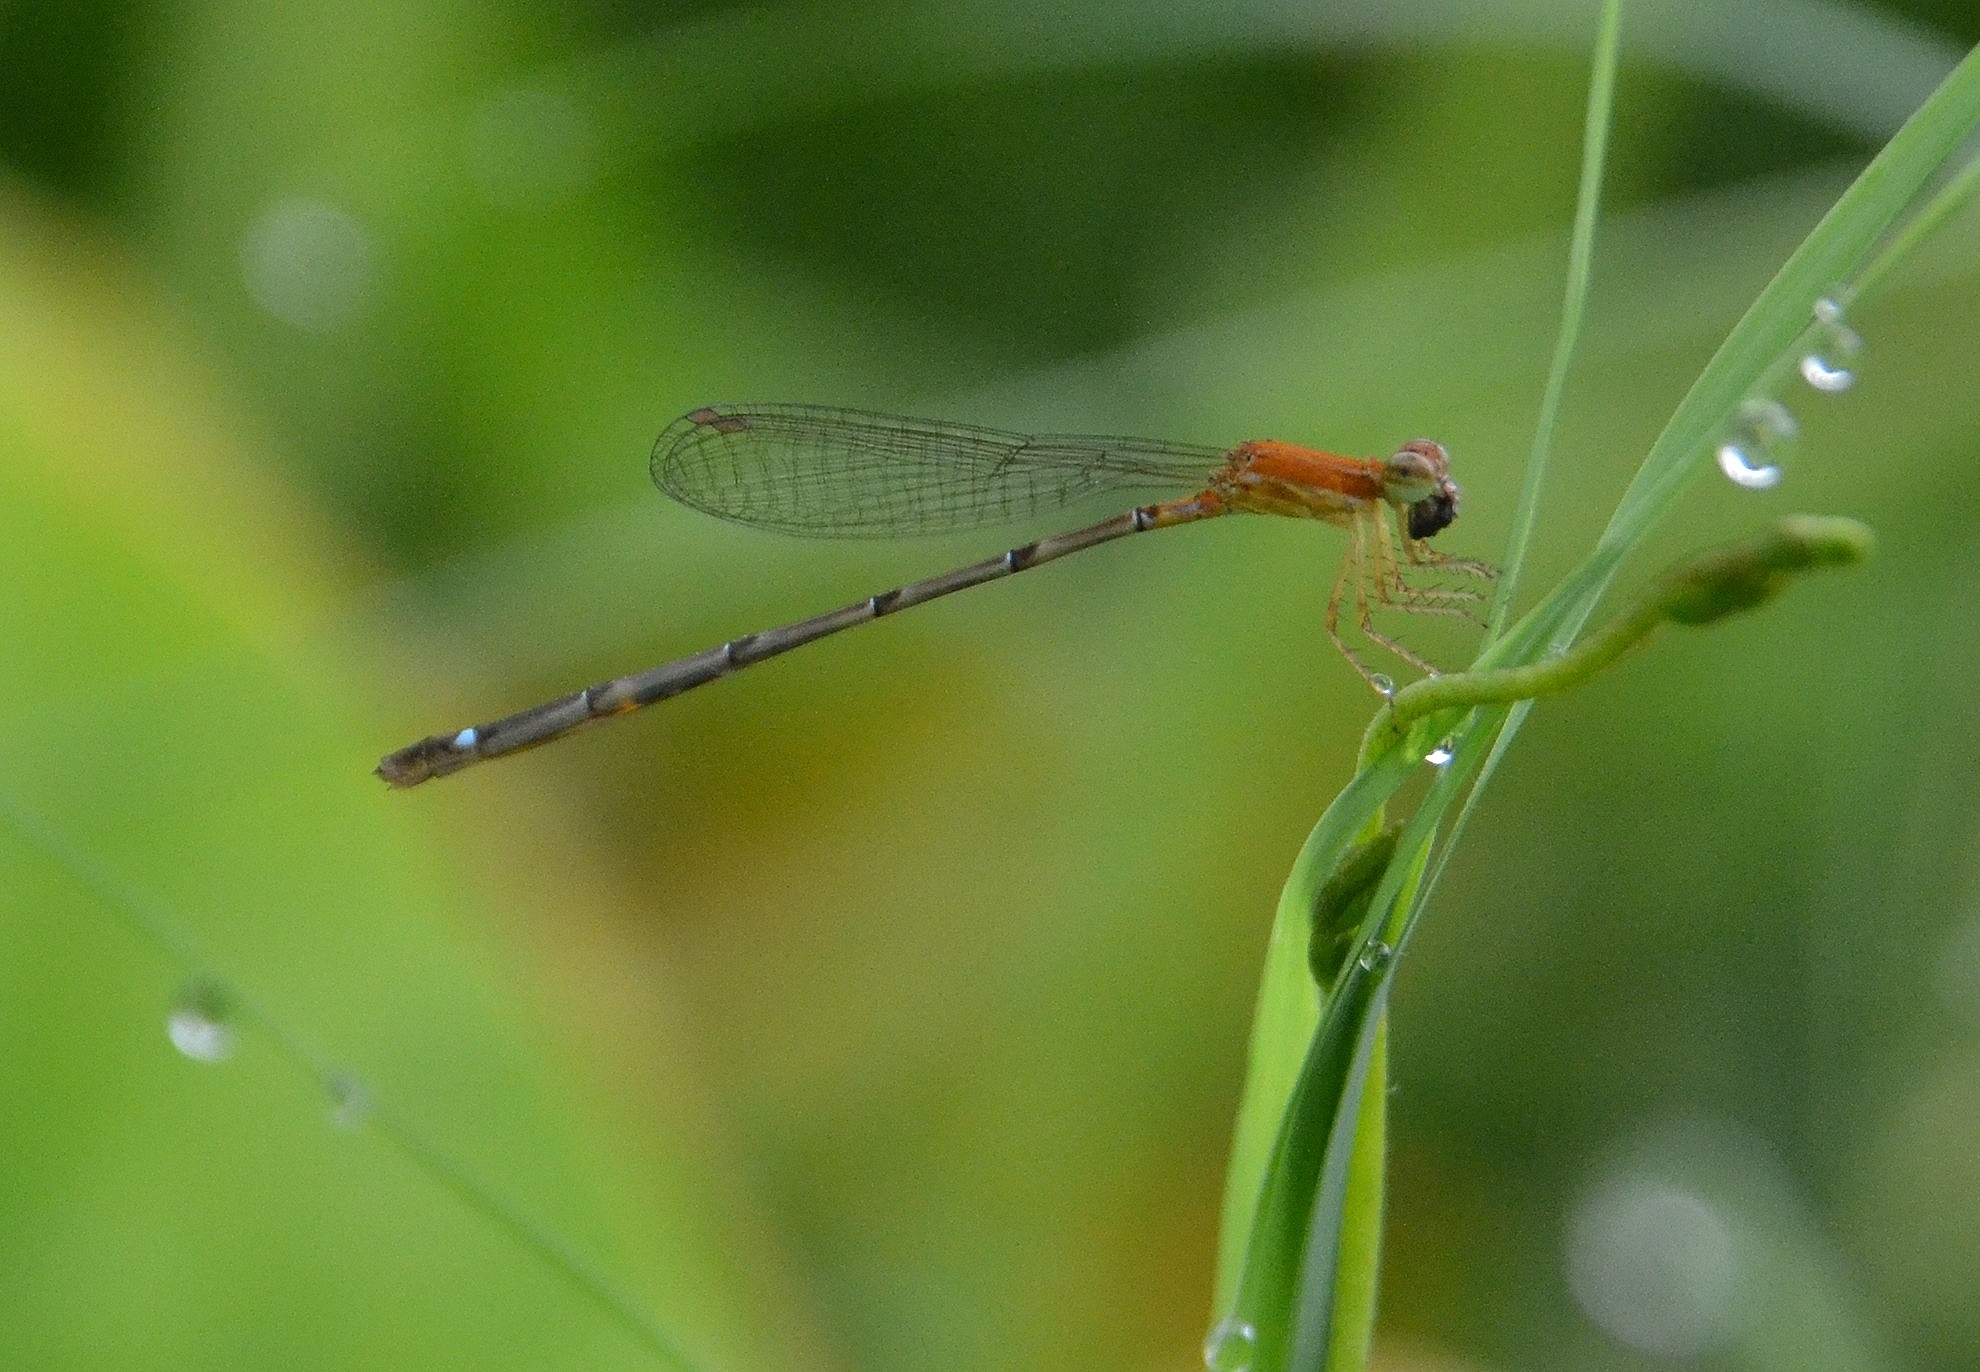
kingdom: Animalia
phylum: Arthropoda
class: Insecta
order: Odonata
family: Coenagrionidae
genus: Mortonagrion
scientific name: Mortonagrion varralli
